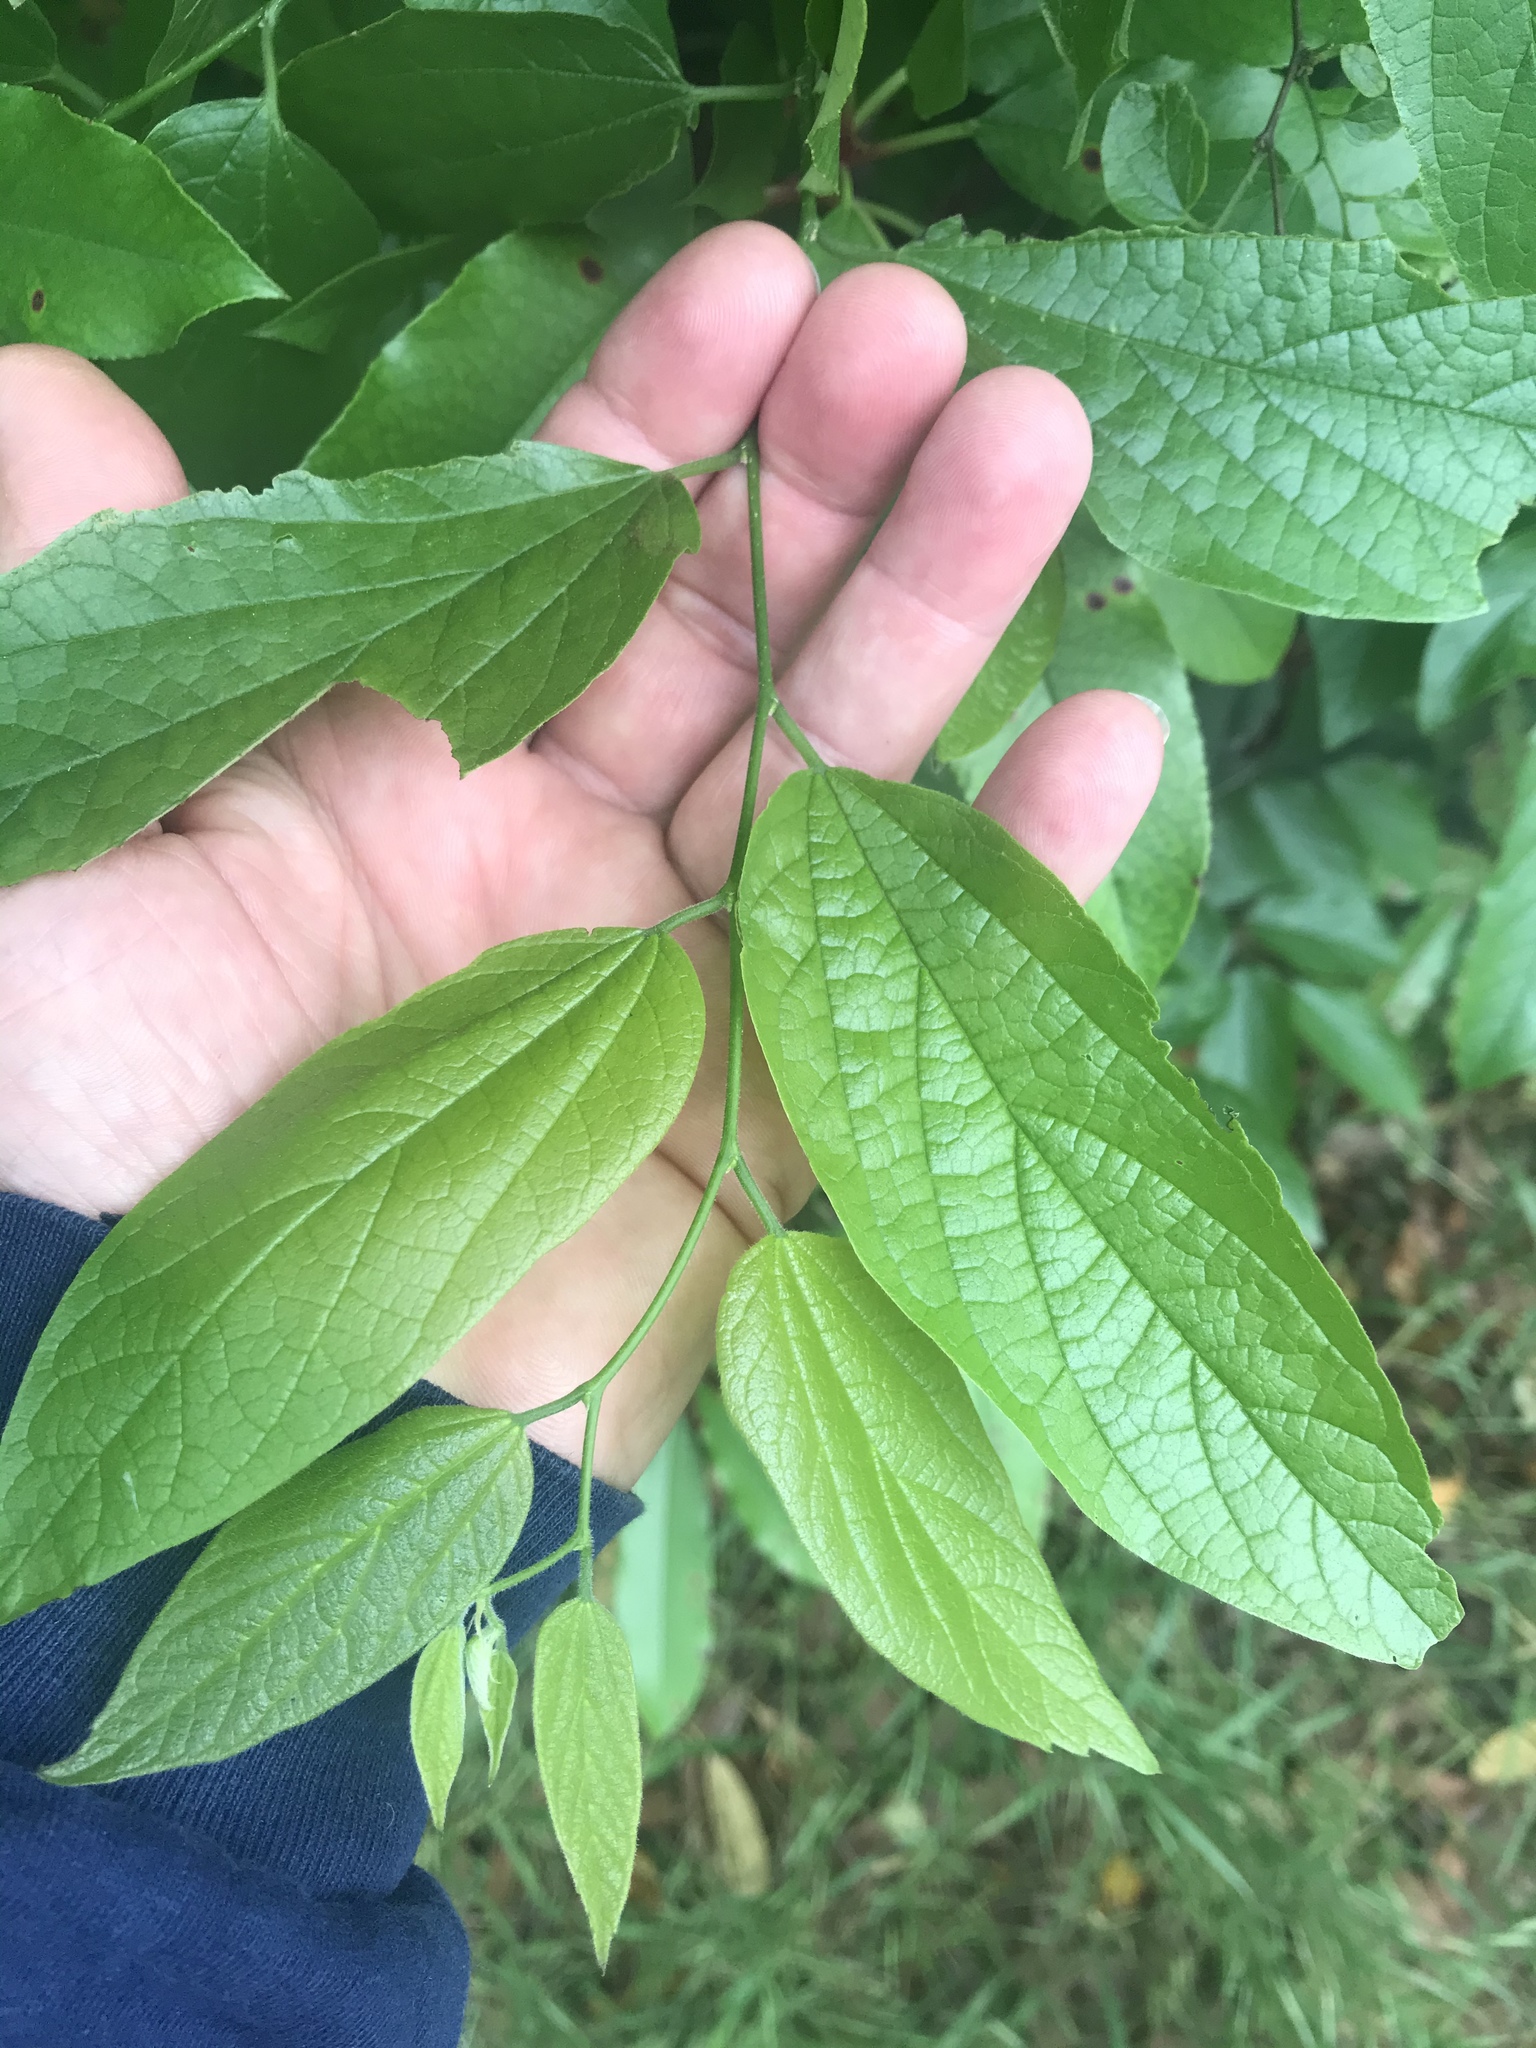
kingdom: Plantae
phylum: Tracheophyta
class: Magnoliopsida
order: Rosales
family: Cannabaceae
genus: Celtis
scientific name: Celtis laevigata
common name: Sugarberry
